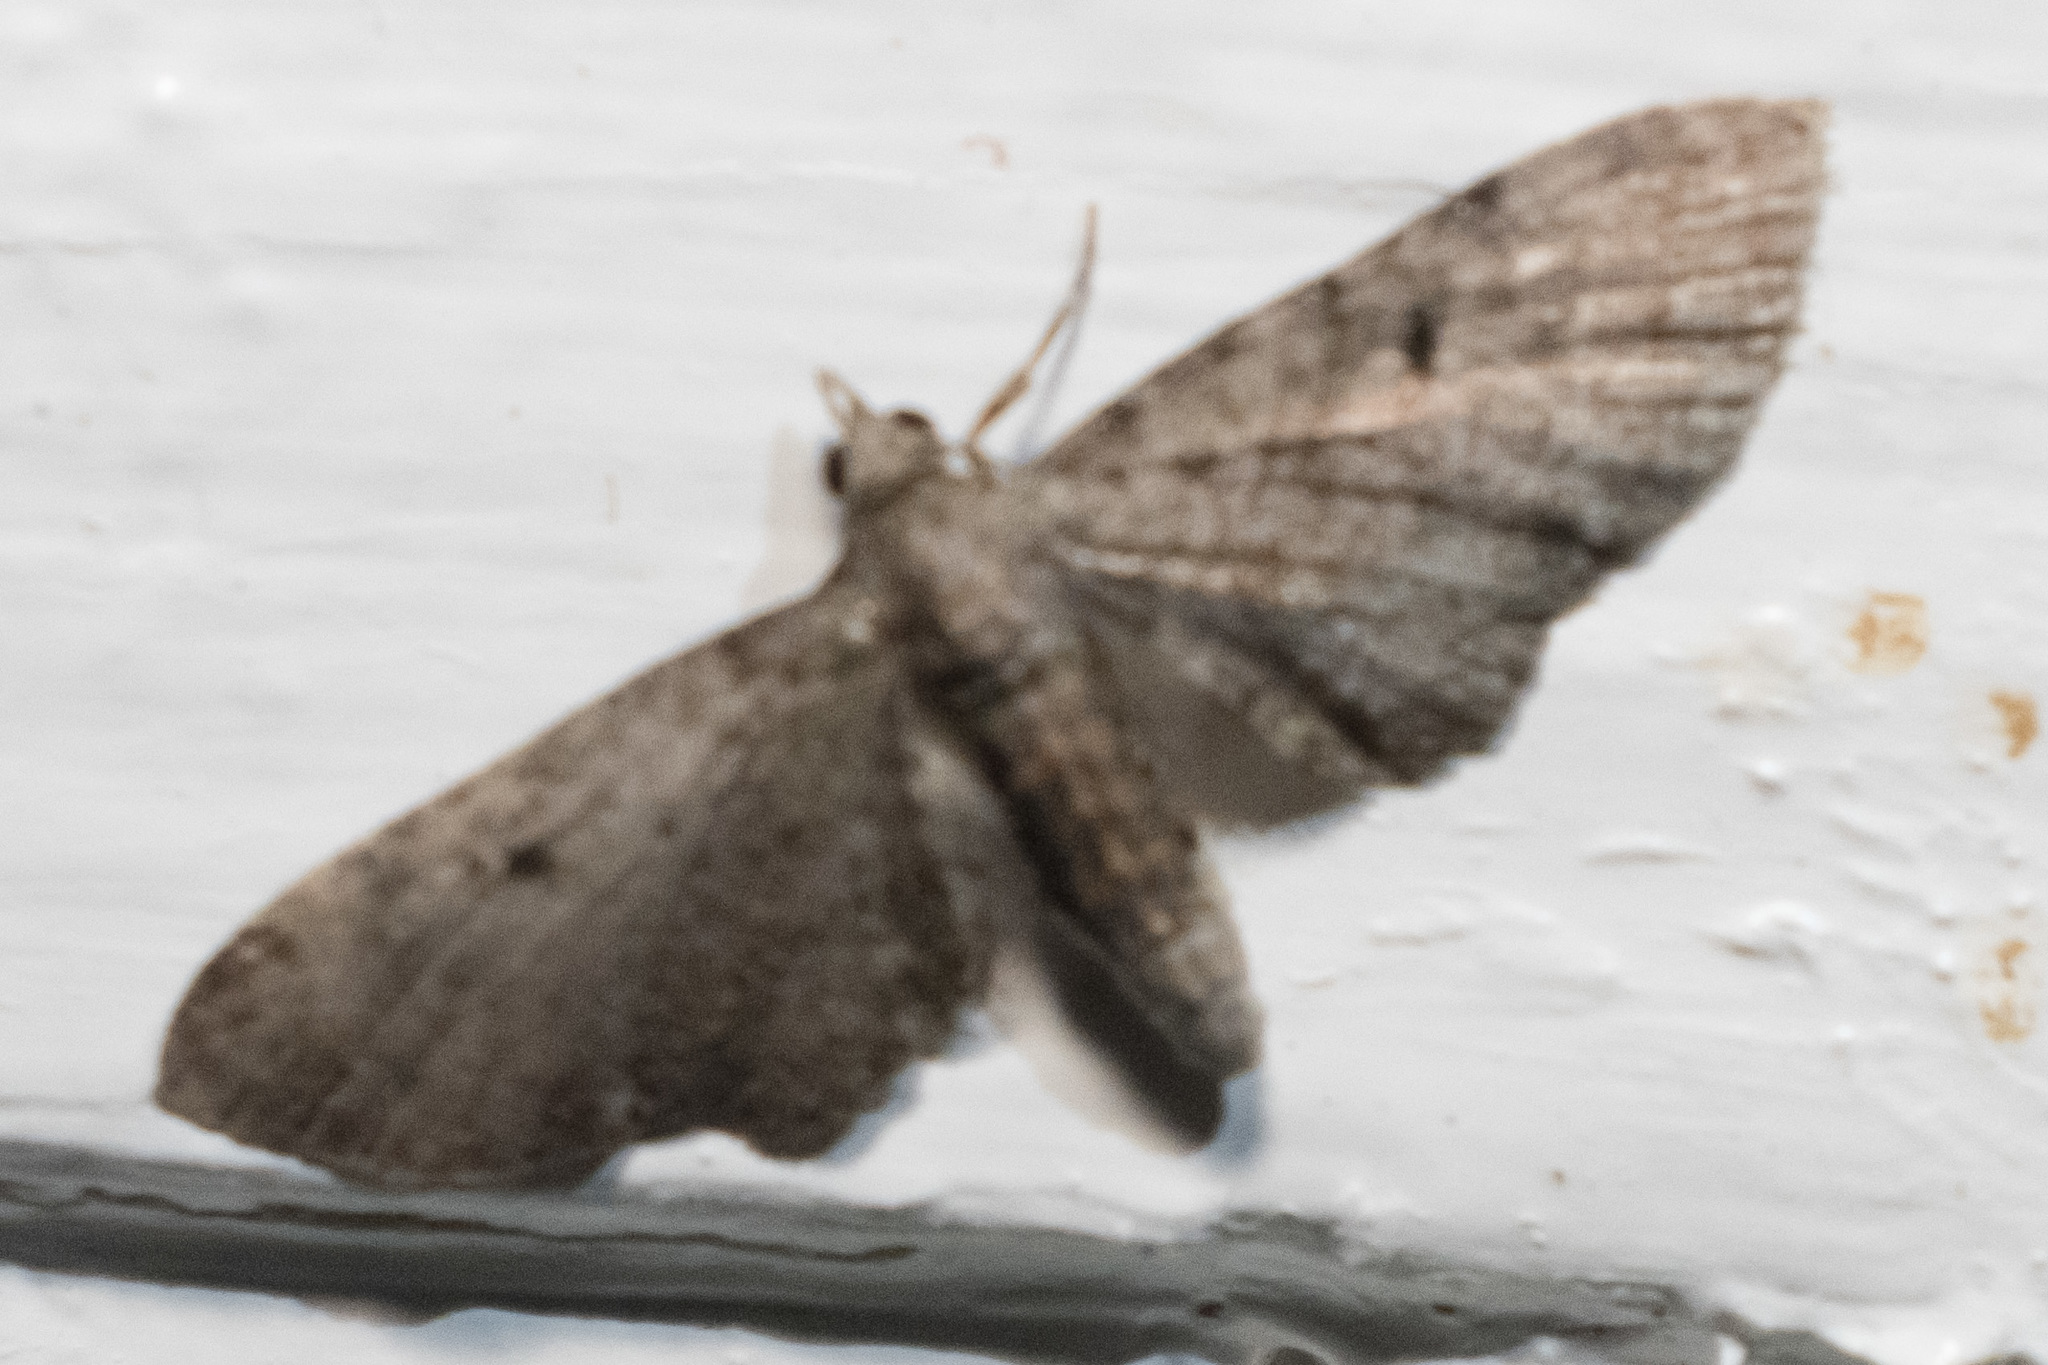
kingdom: Animalia
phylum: Arthropoda
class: Insecta
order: Lepidoptera
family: Geometridae
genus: Eupithecia
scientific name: Eupithecia
